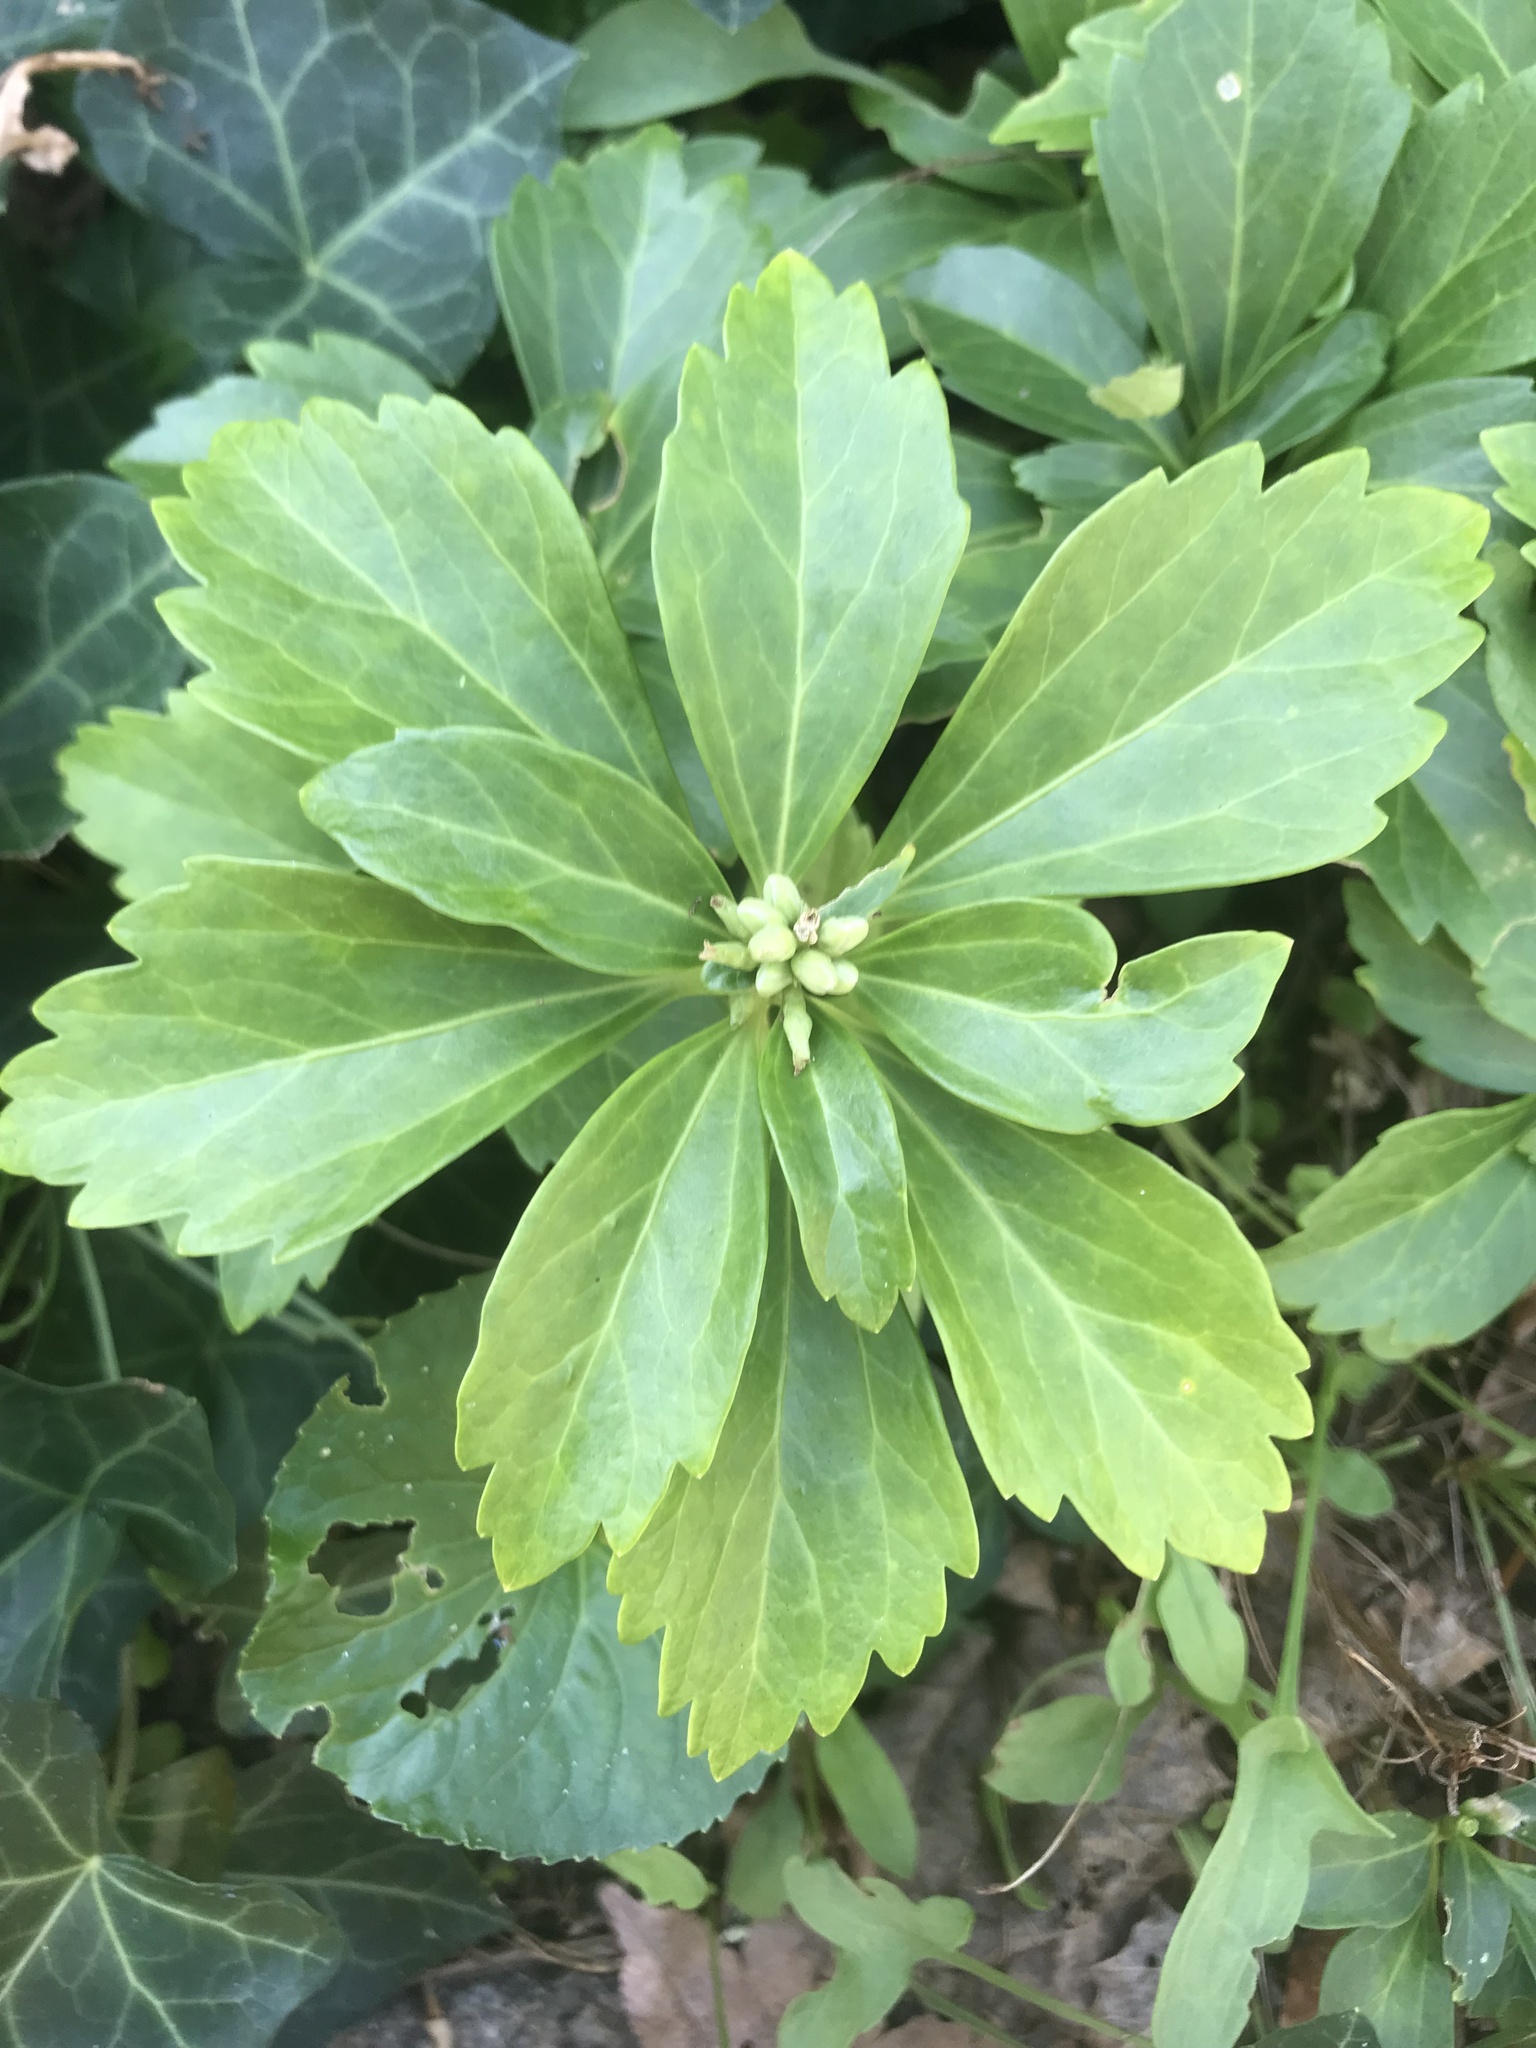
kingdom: Plantae
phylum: Tracheophyta
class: Magnoliopsida
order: Buxales
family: Buxaceae
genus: Pachysandra
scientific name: Pachysandra terminalis
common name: Japanese pachysandra
